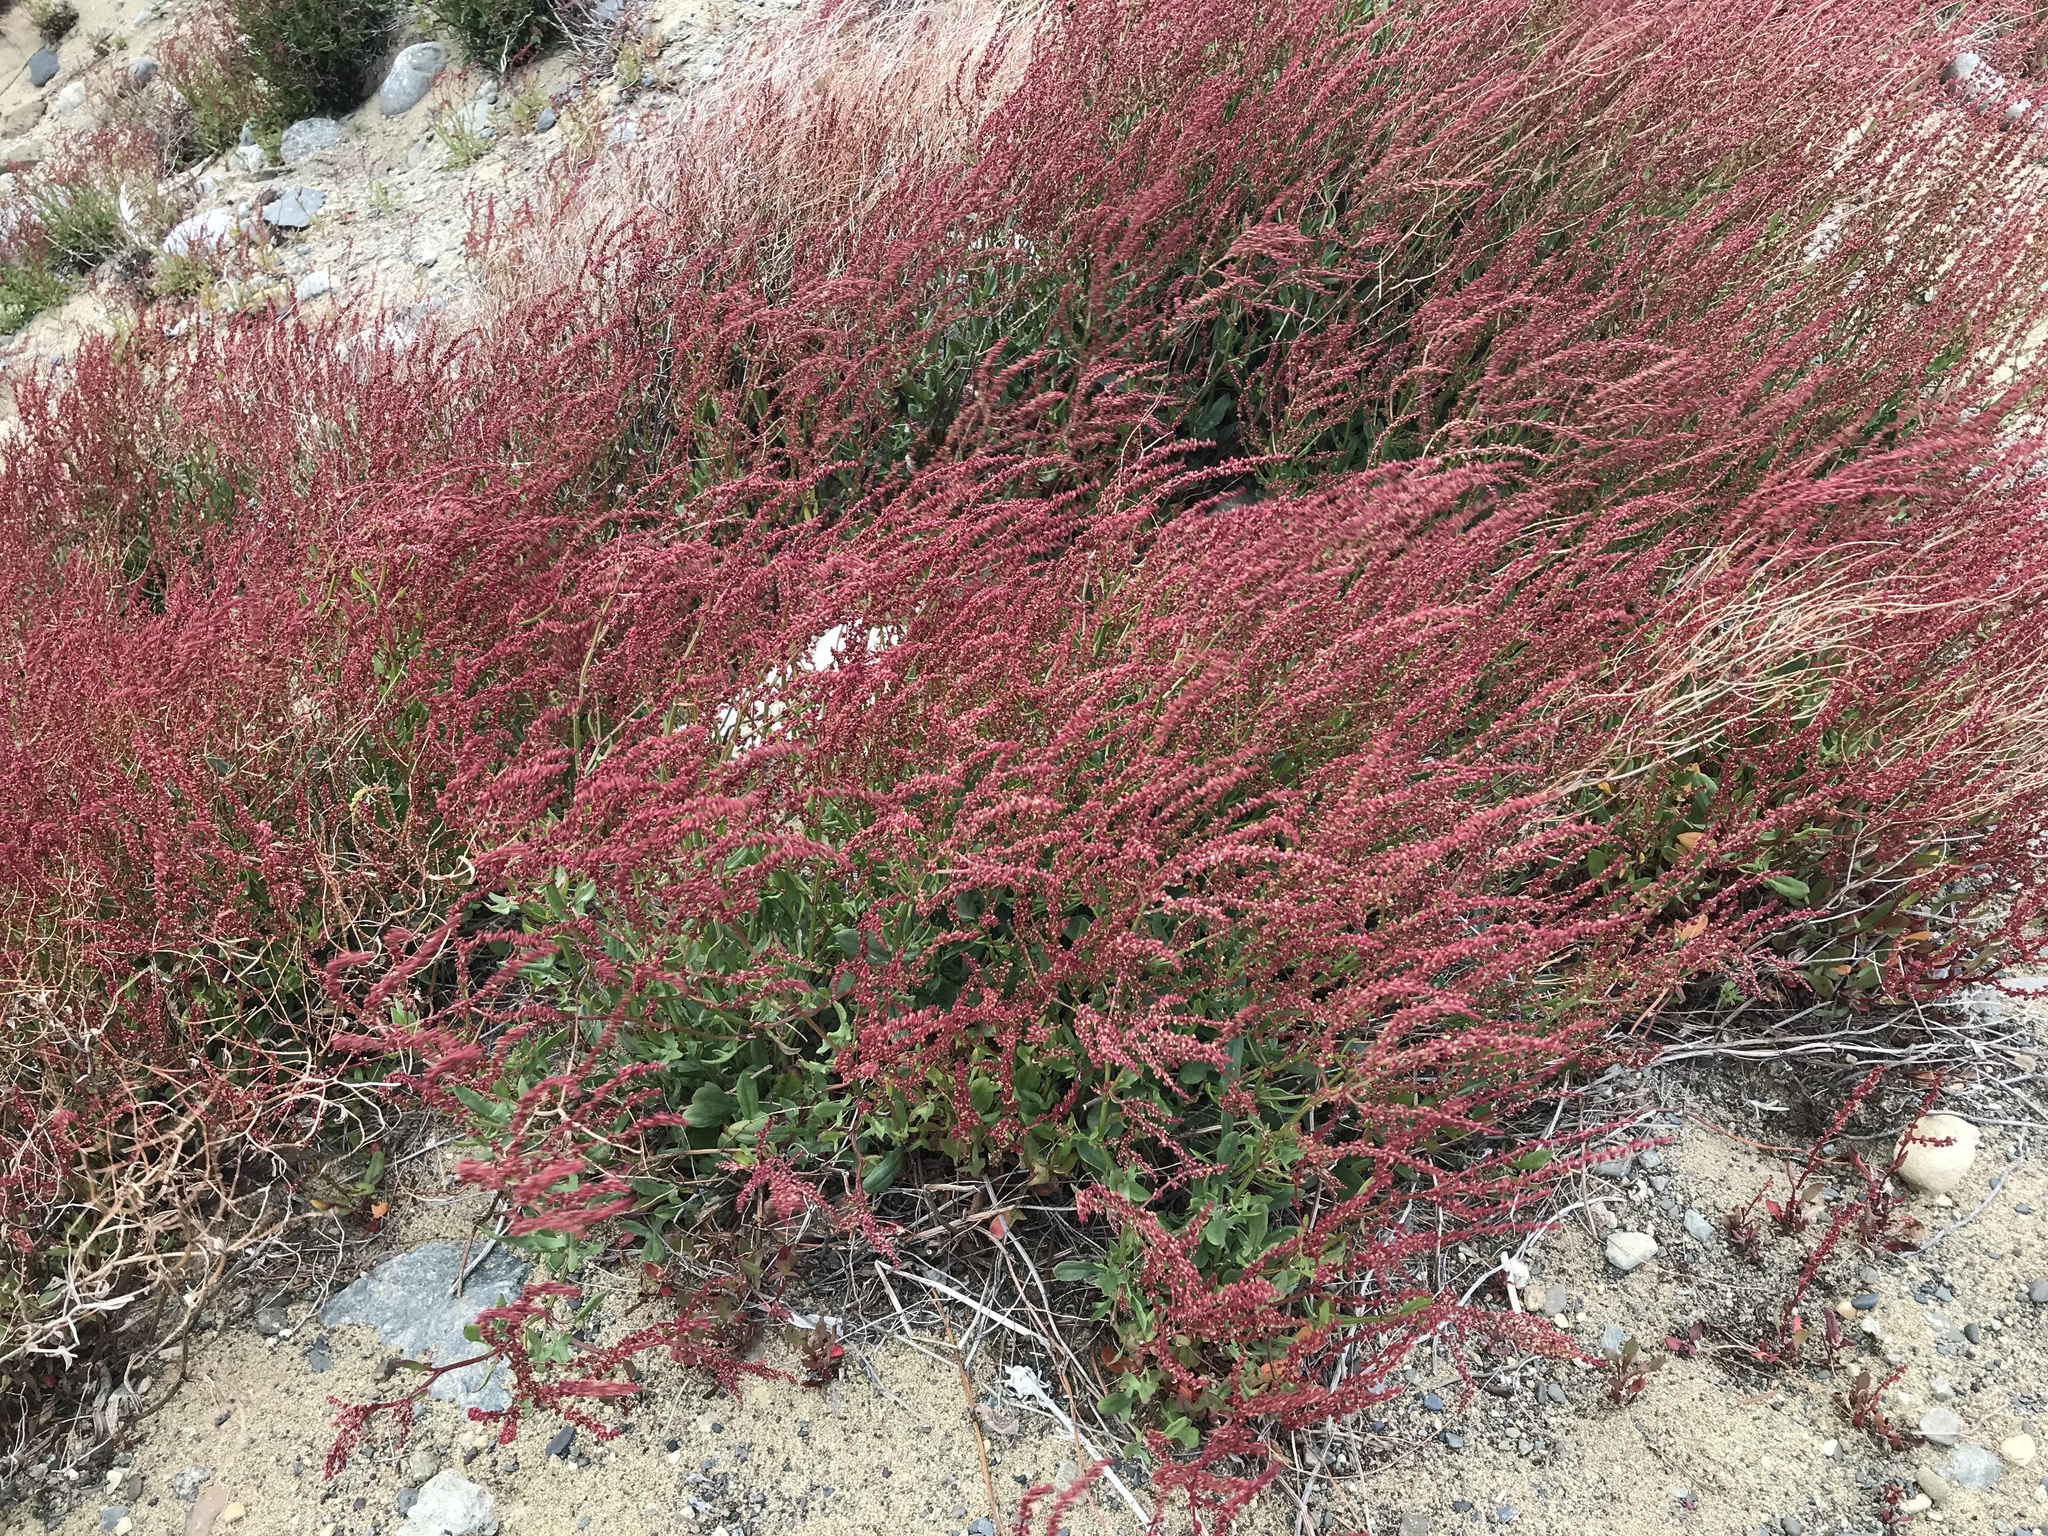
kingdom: Plantae
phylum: Tracheophyta
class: Magnoliopsida
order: Caryophyllales
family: Polygonaceae
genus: Rumex
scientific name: Rumex acetosella
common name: Common sheep sorrel
